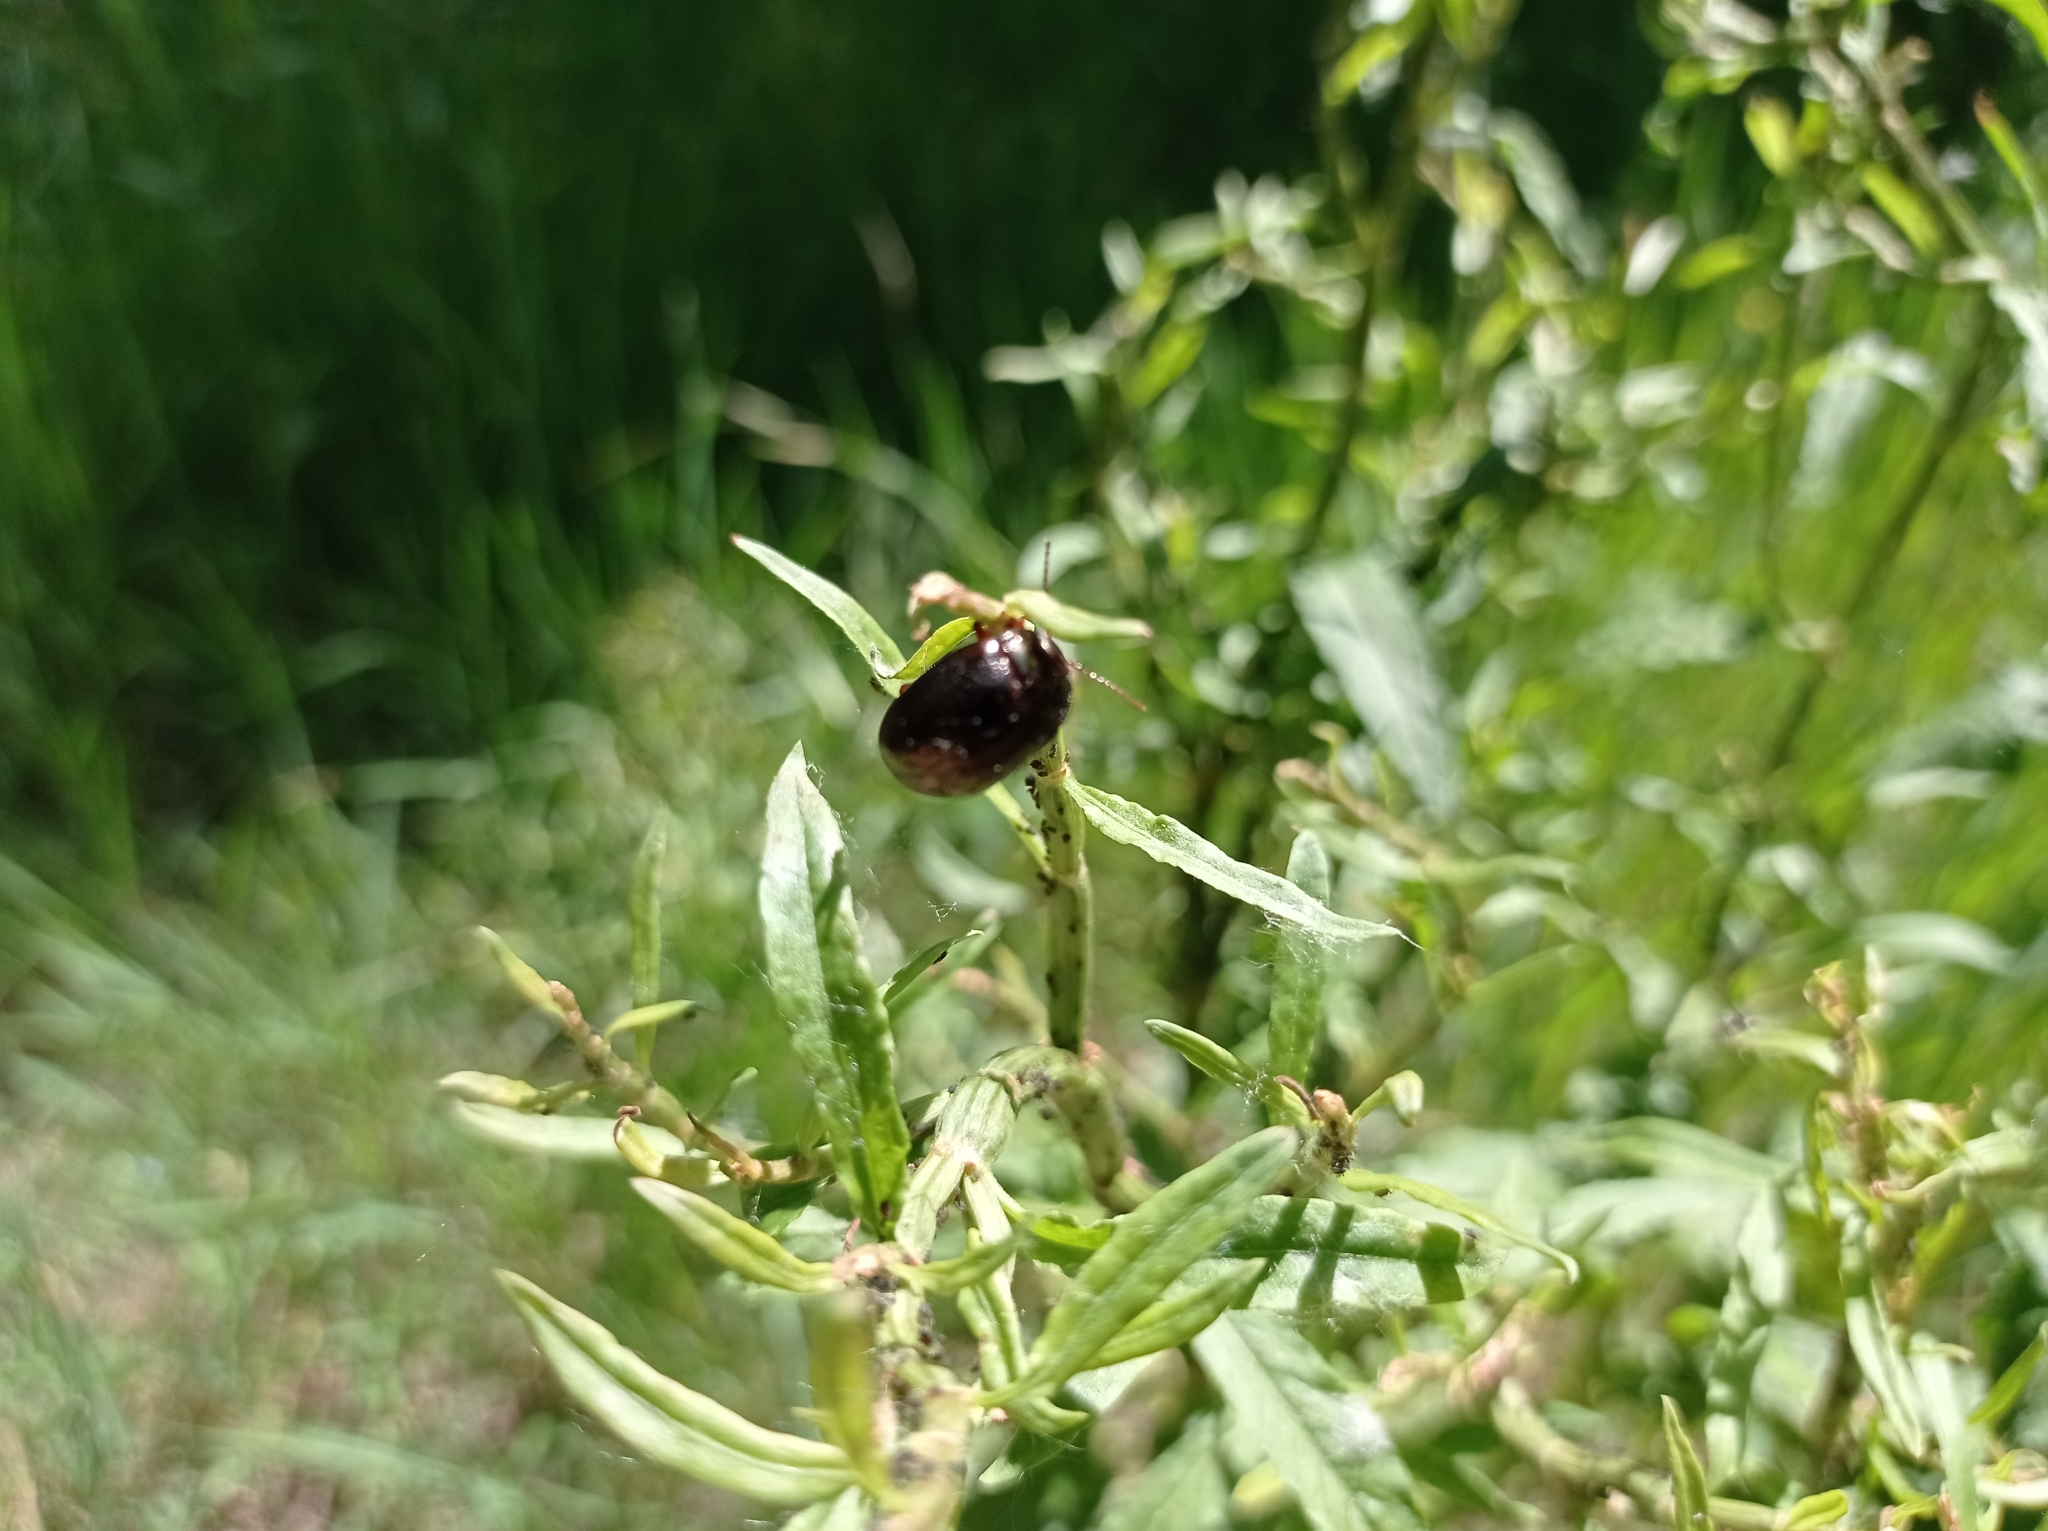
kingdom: Animalia
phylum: Arthropoda
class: Insecta
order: Coleoptera
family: Chrysomelidae
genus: Chrysolina
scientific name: Chrysolina bankii
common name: Leaf beetle
